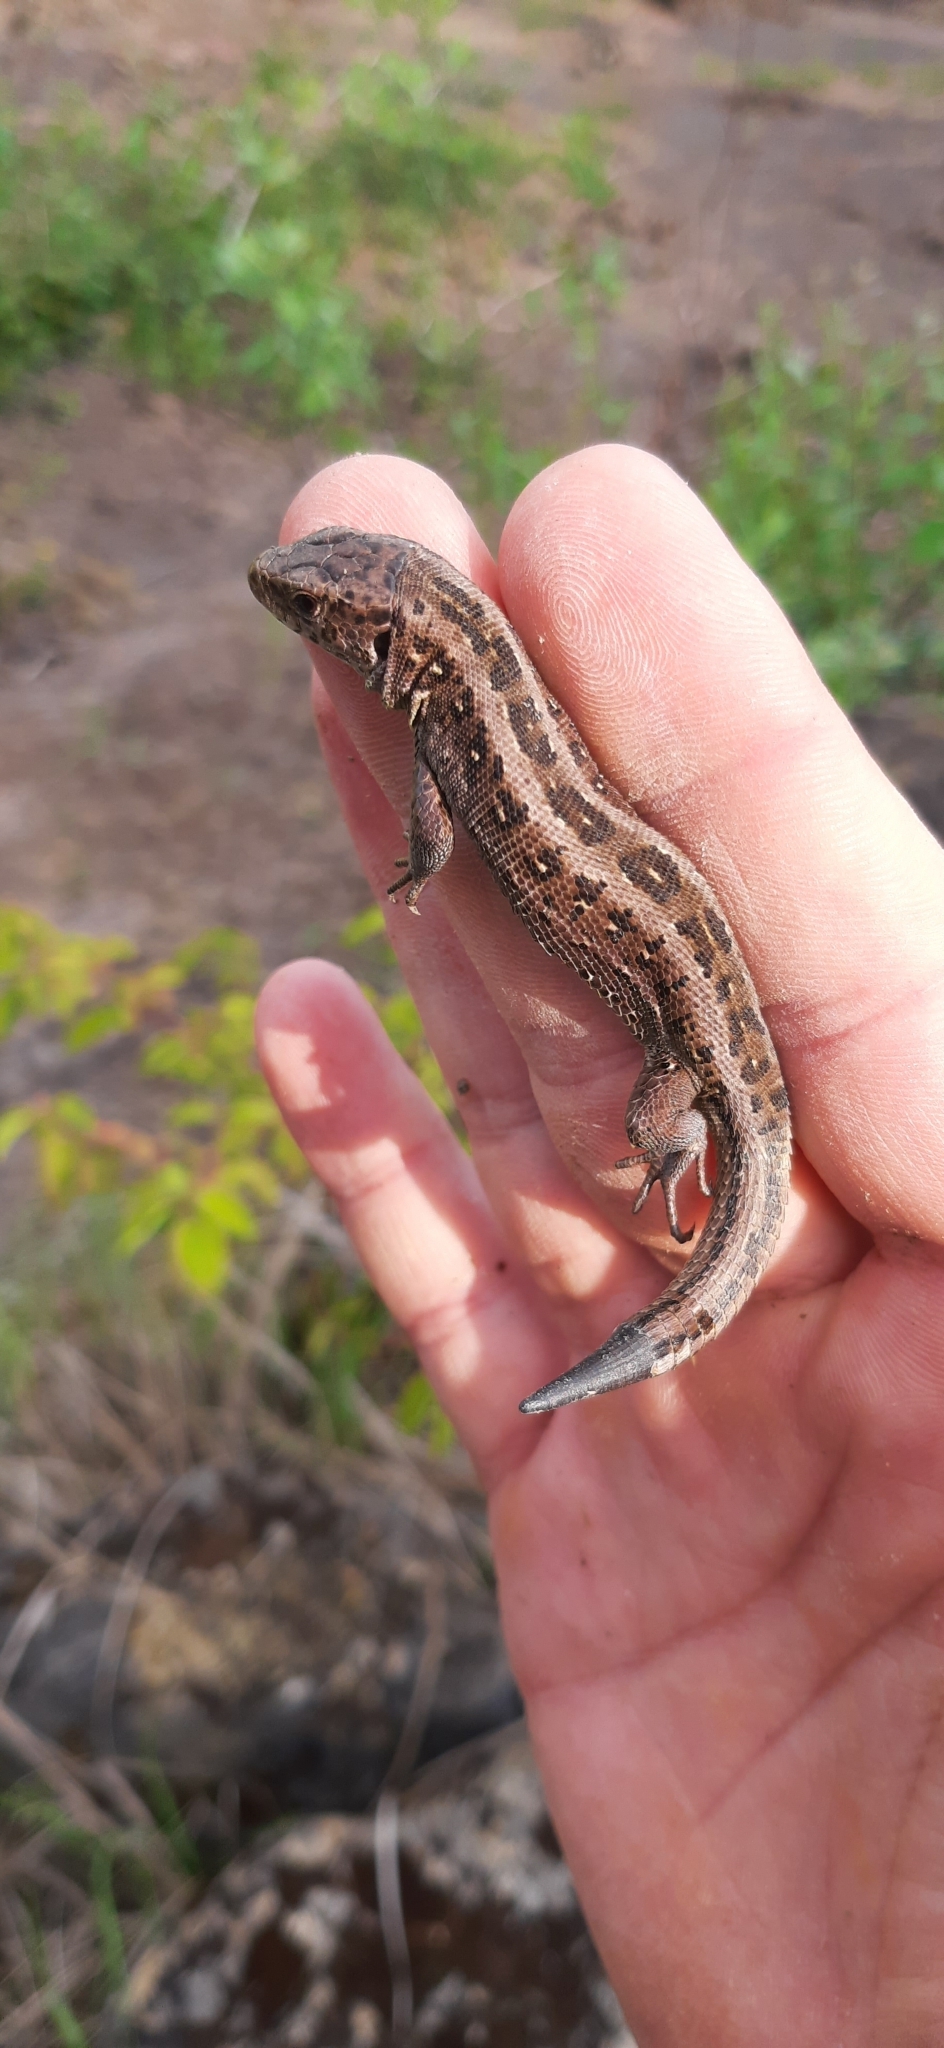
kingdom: Animalia
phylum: Chordata
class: Squamata
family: Lacertidae
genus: Lacerta
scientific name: Lacerta agilis
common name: Sand lizard
